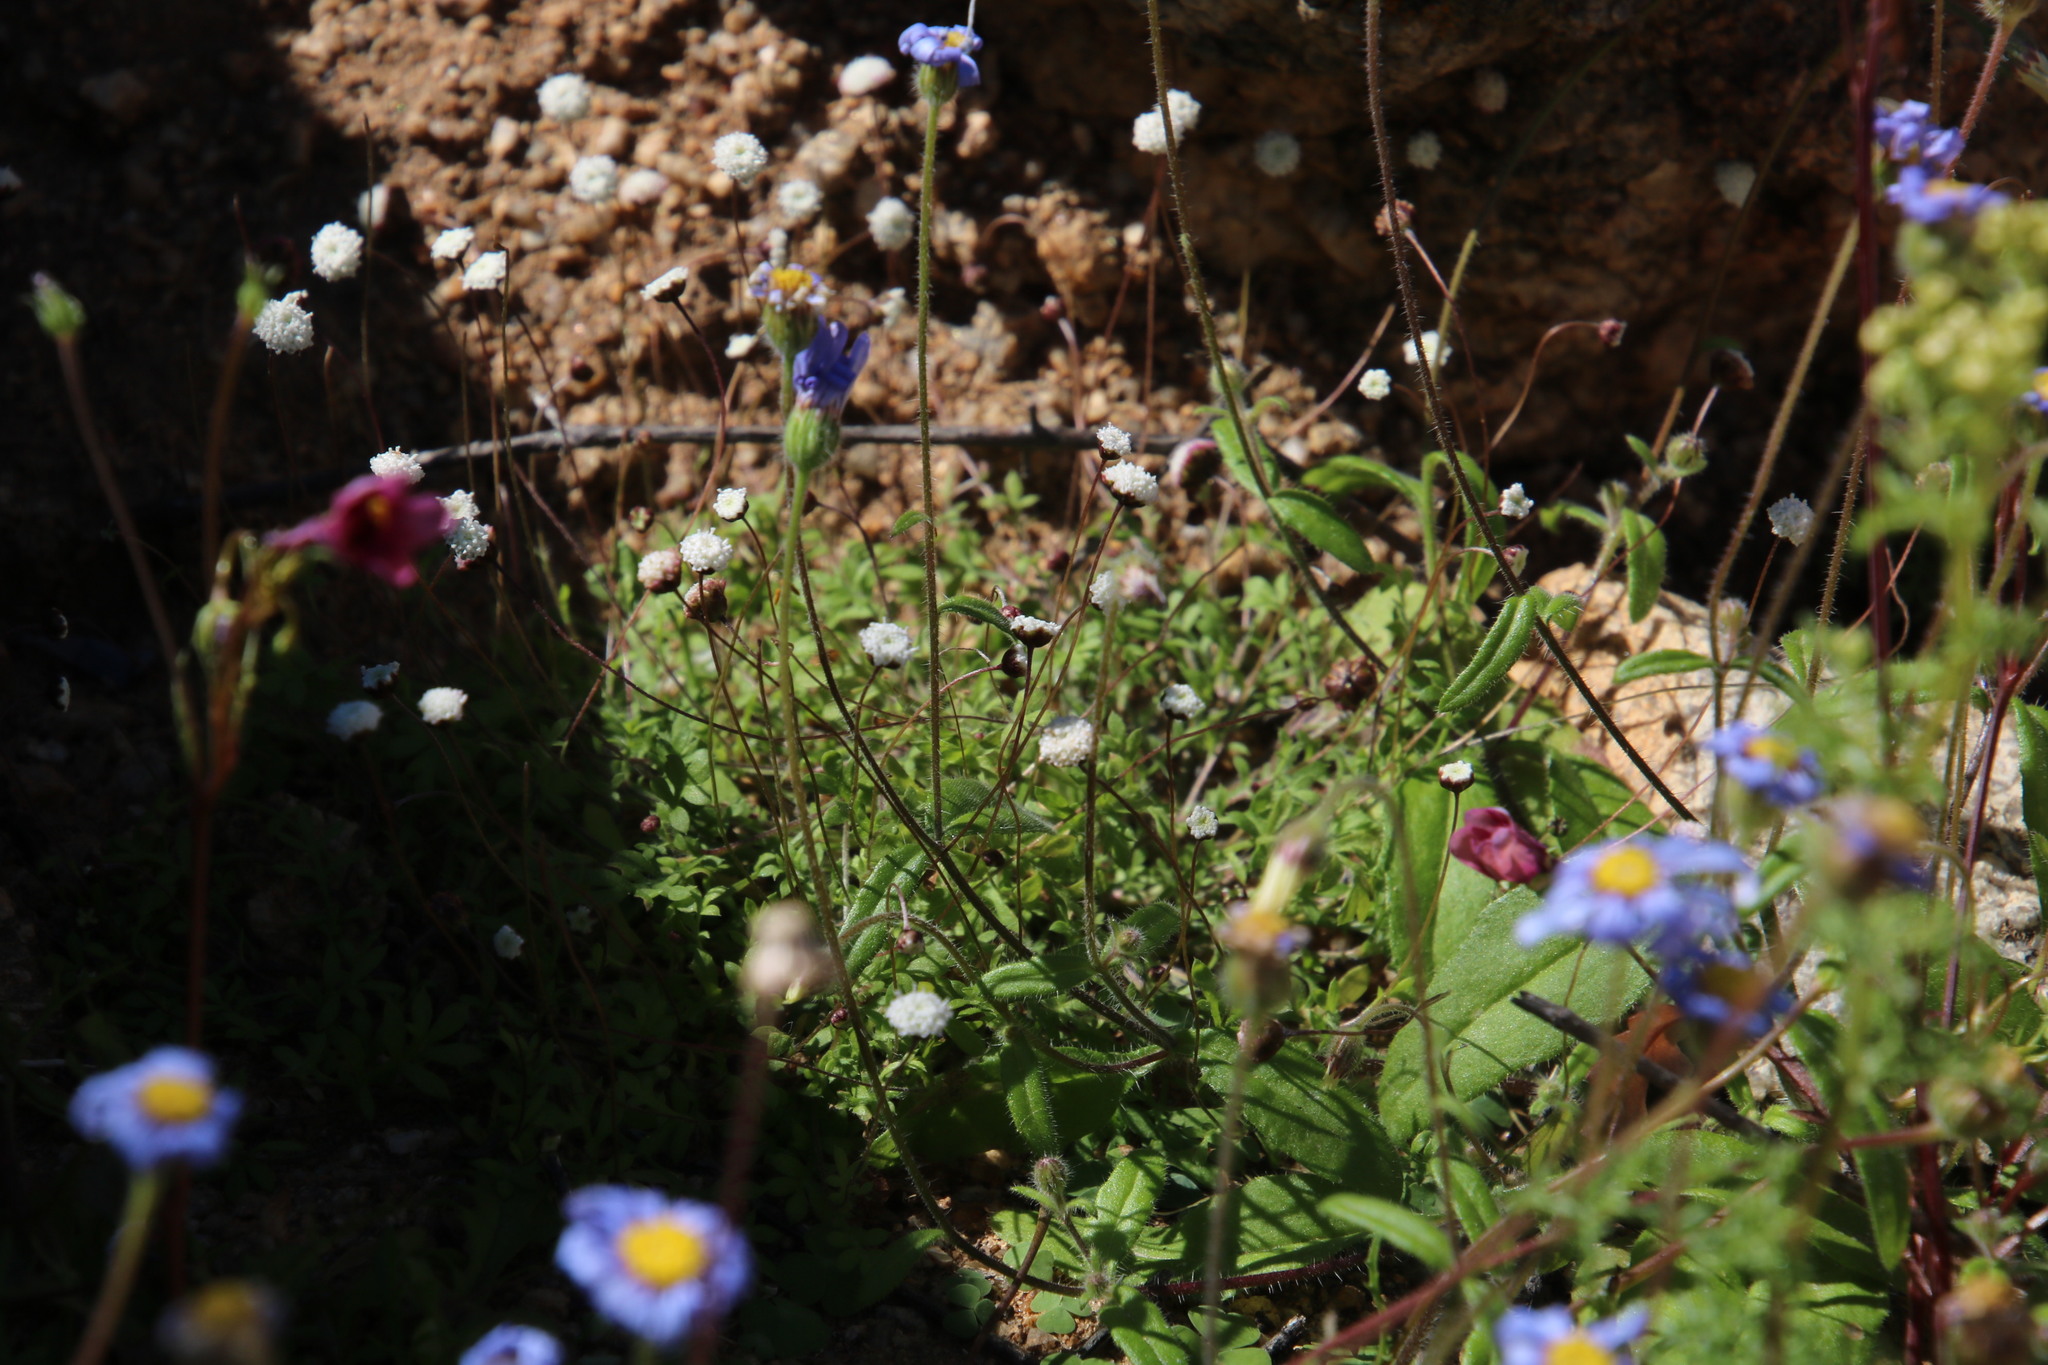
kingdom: Plantae
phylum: Tracheophyta
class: Magnoliopsida
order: Asterales
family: Asteraceae
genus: Cotula
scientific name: Cotula laxa
